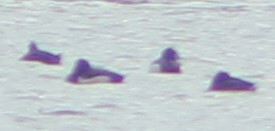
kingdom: Animalia
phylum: Chordata
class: Aves
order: Anseriformes
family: Anatidae
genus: Aythya
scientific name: Aythya fuligula
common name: Tufted duck
